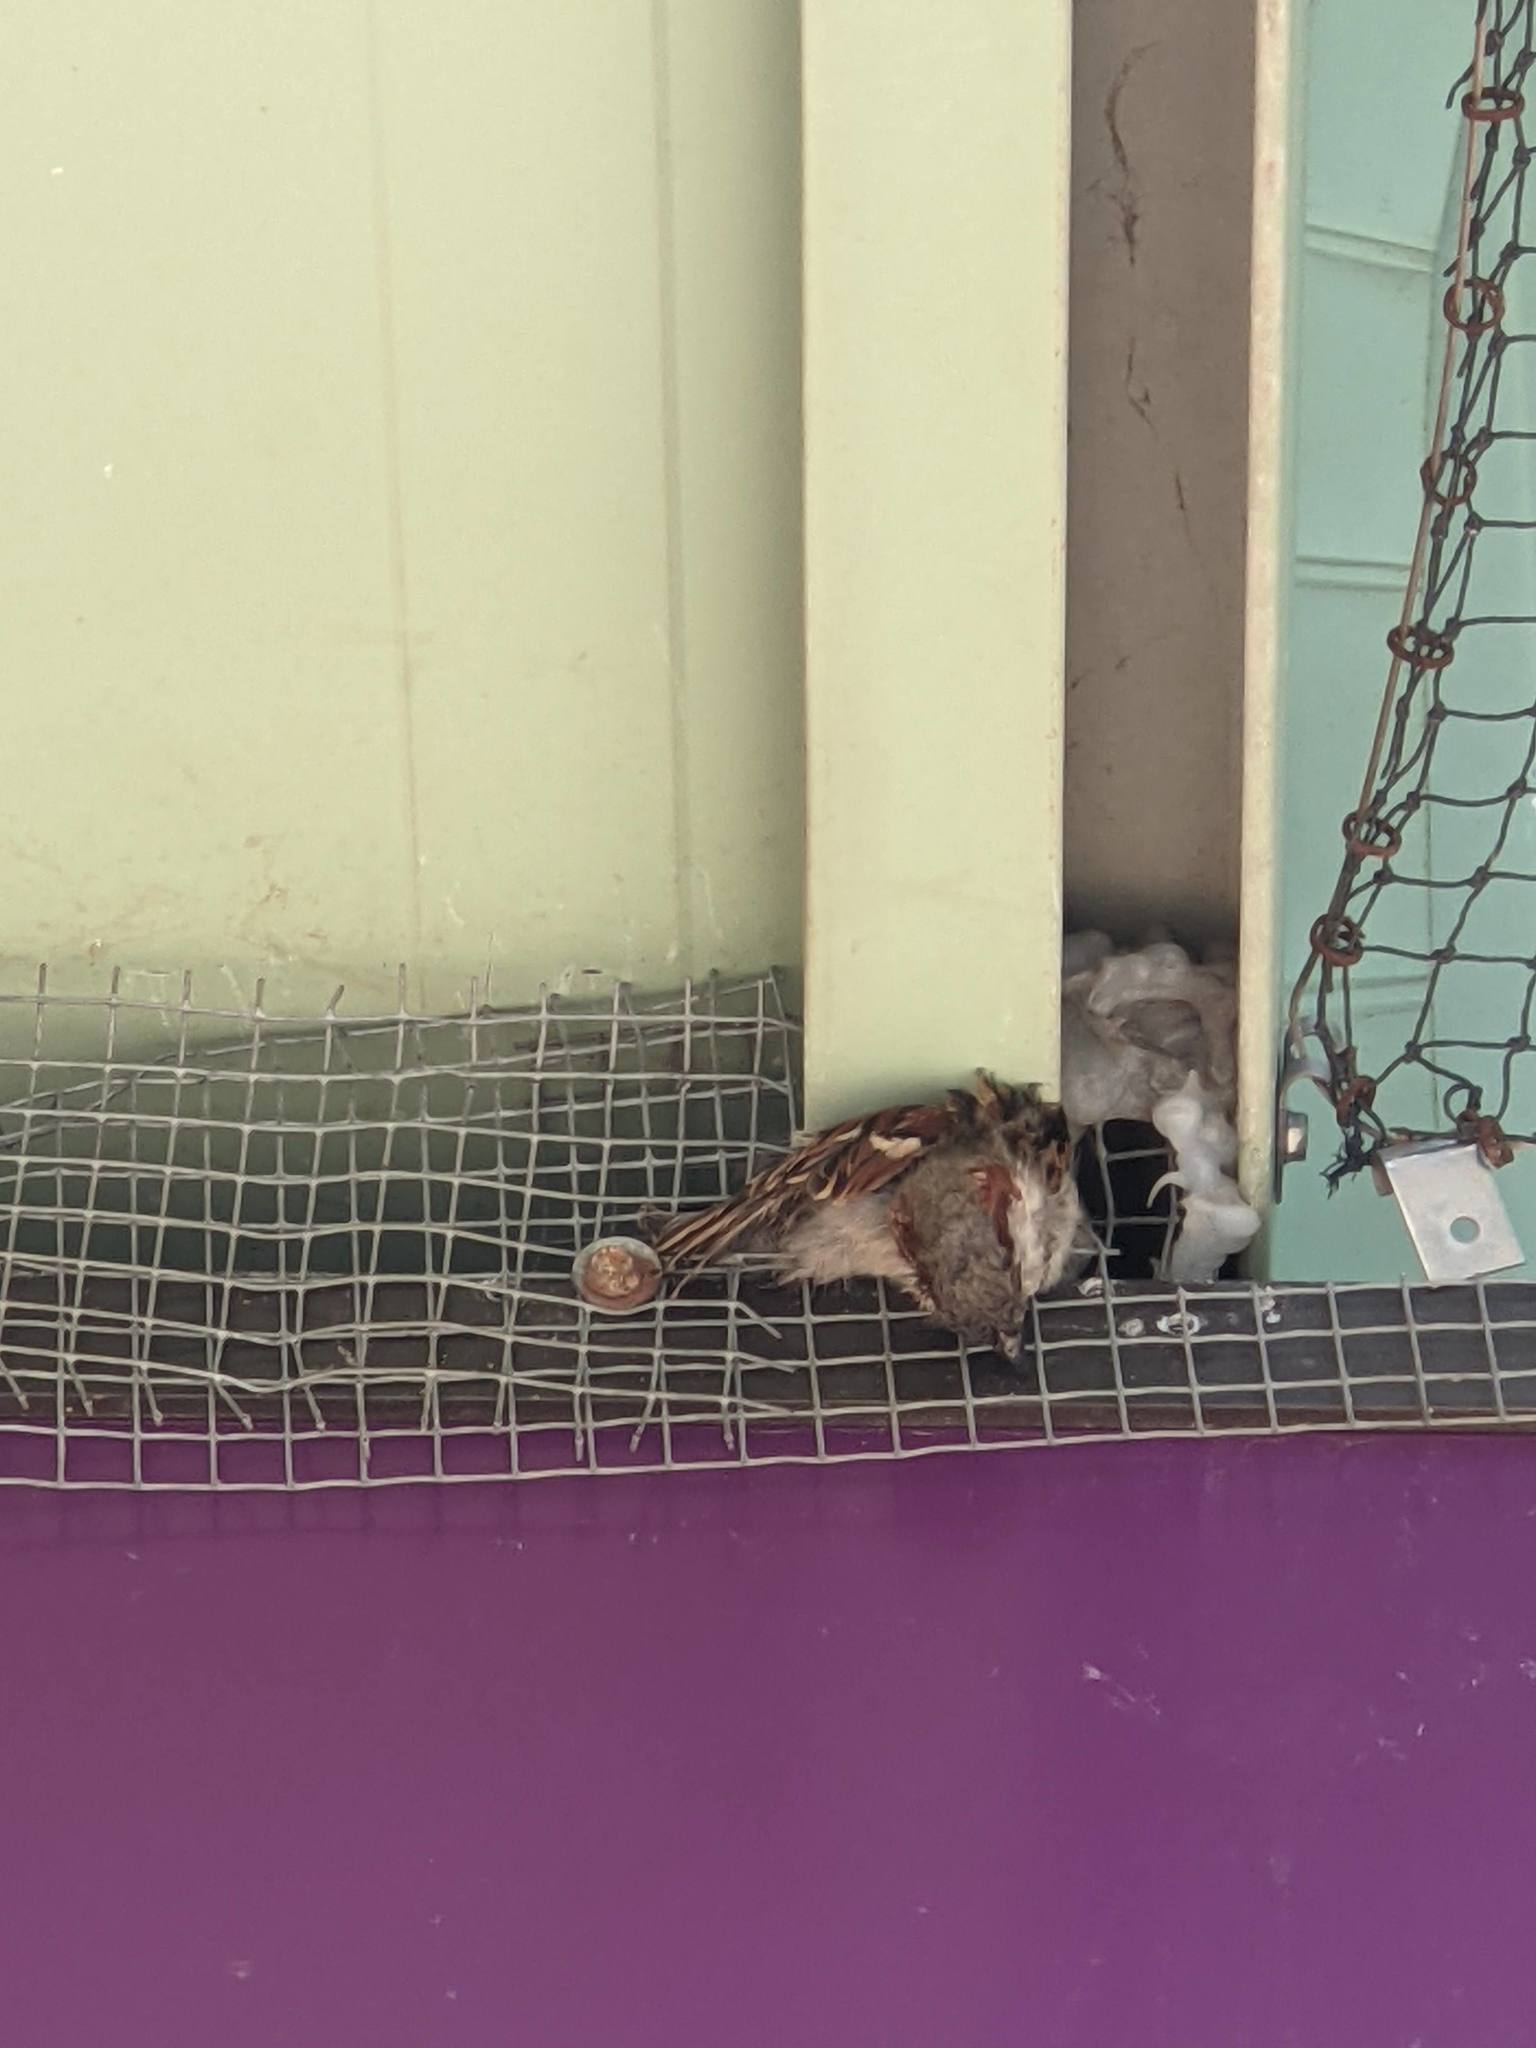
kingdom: Animalia
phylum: Chordata
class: Aves
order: Passeriformes
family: Passeridae
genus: Passer
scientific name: Passer domesticus
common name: House sparrow
